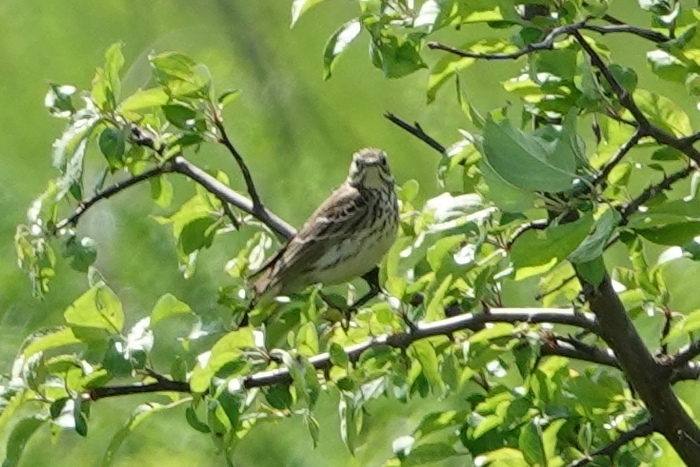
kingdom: Animalia
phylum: Chordata
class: Aves
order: Passeriformes
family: Motacillidae
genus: Anthus
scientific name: Anthus trivialis
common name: Tree pipit
